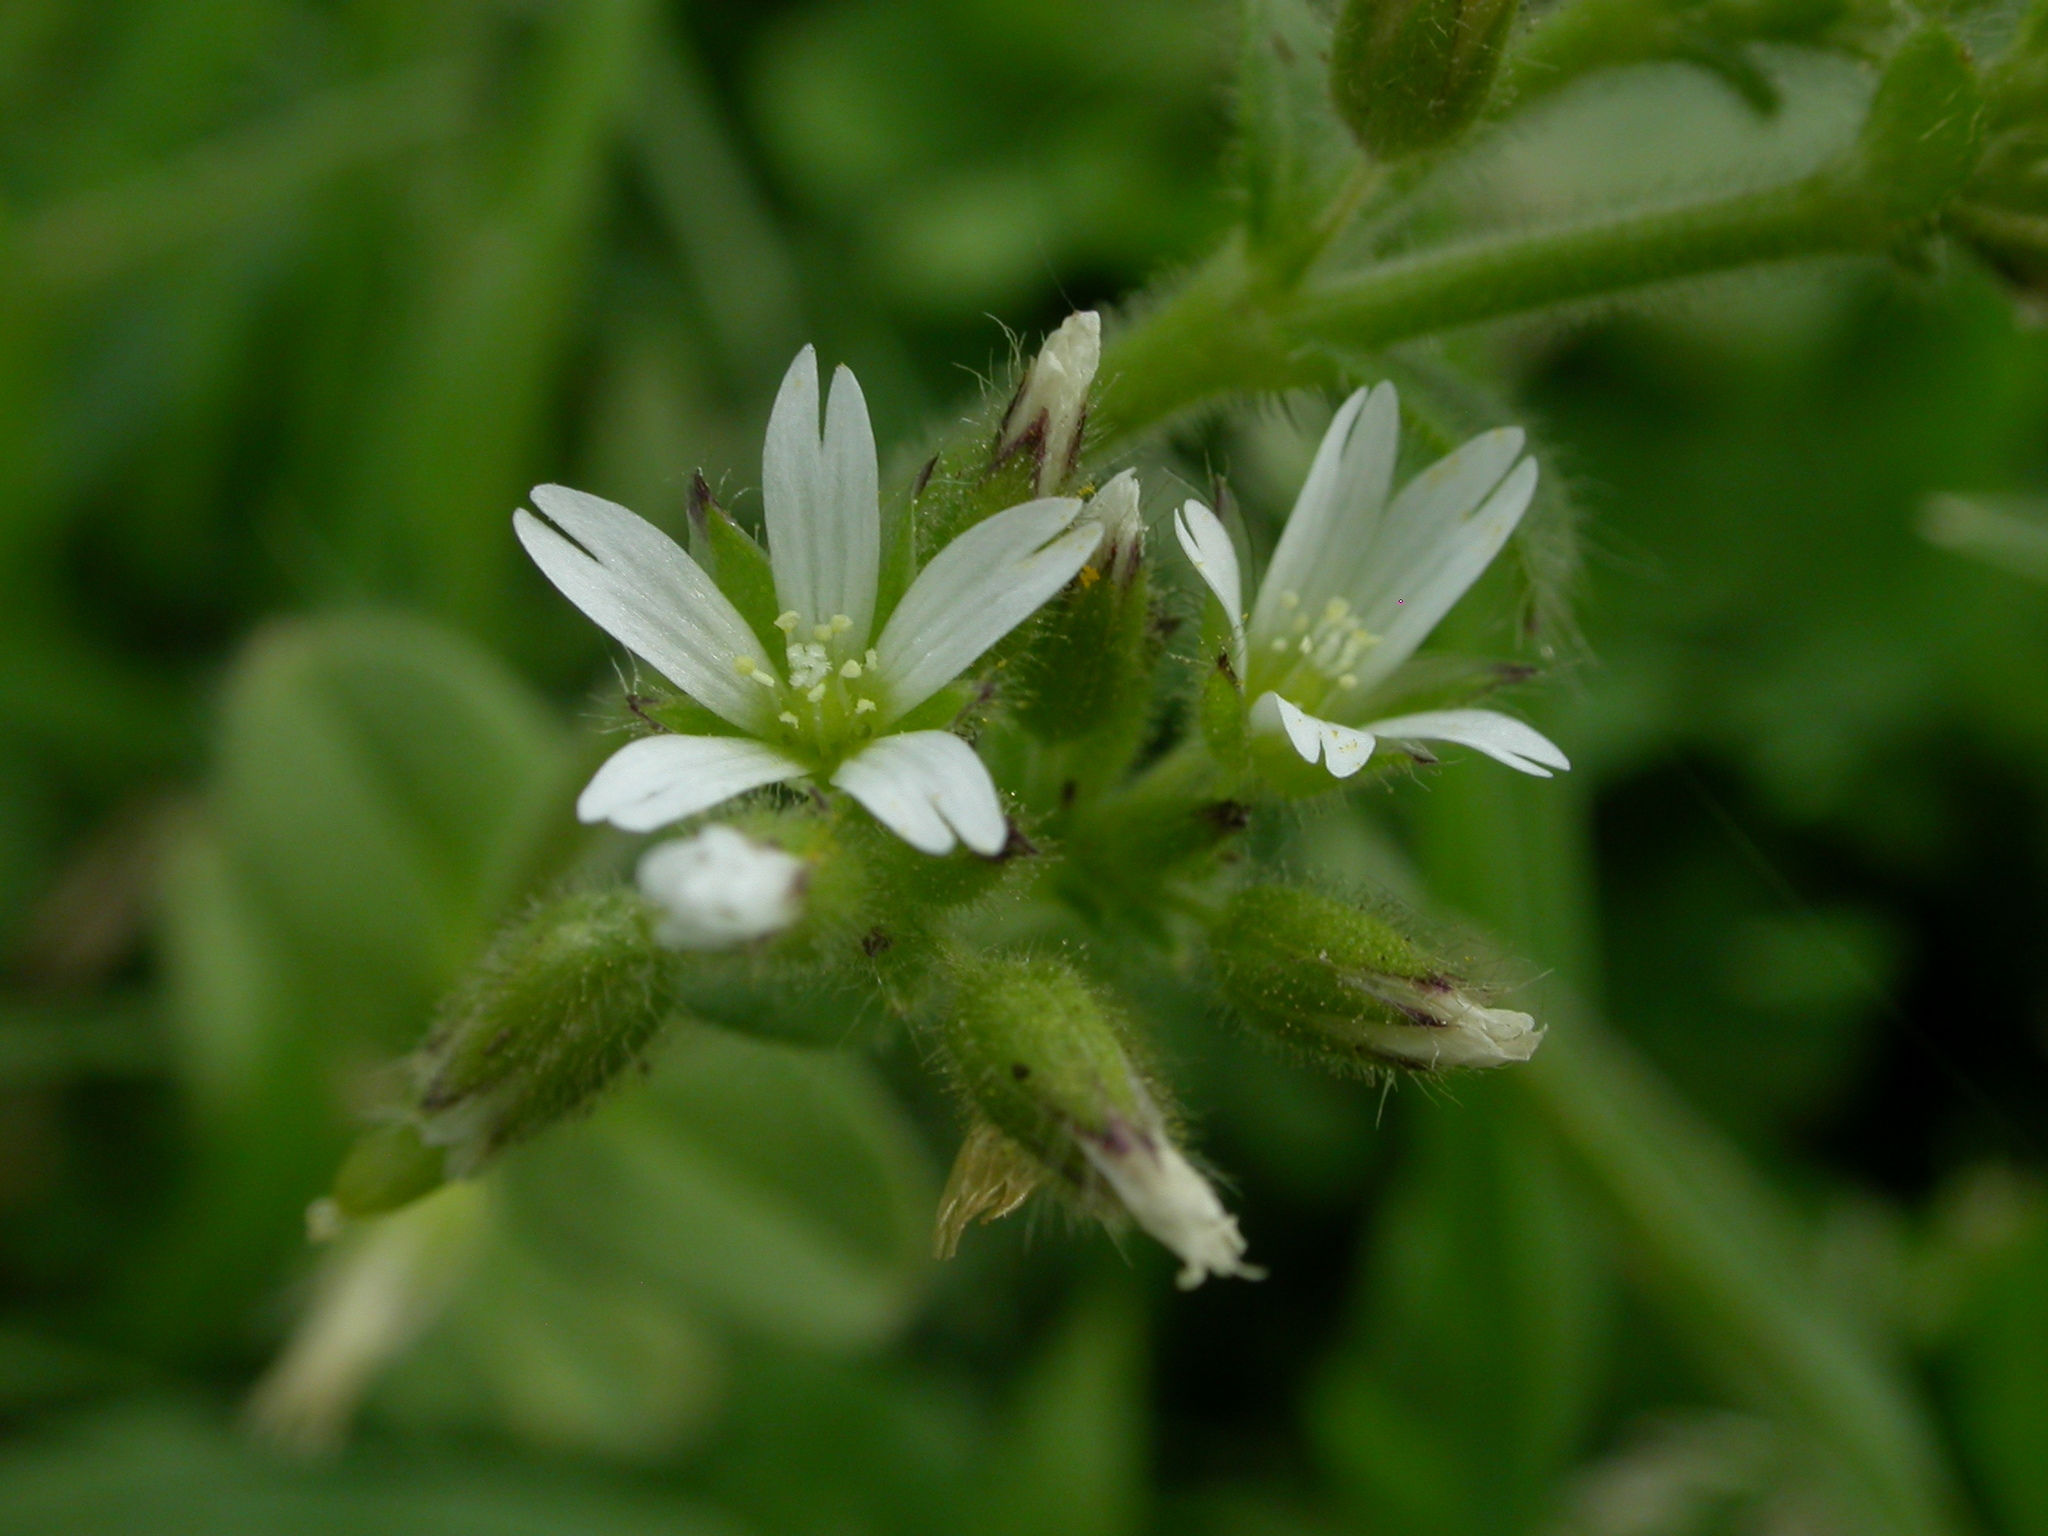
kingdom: Plantae
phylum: Tracheophyta
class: Magnoliopsida
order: Caryophyllales
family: Caryophyllaceae
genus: Cerastium
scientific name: Cerastium glomeratum
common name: Sticky chickweed
